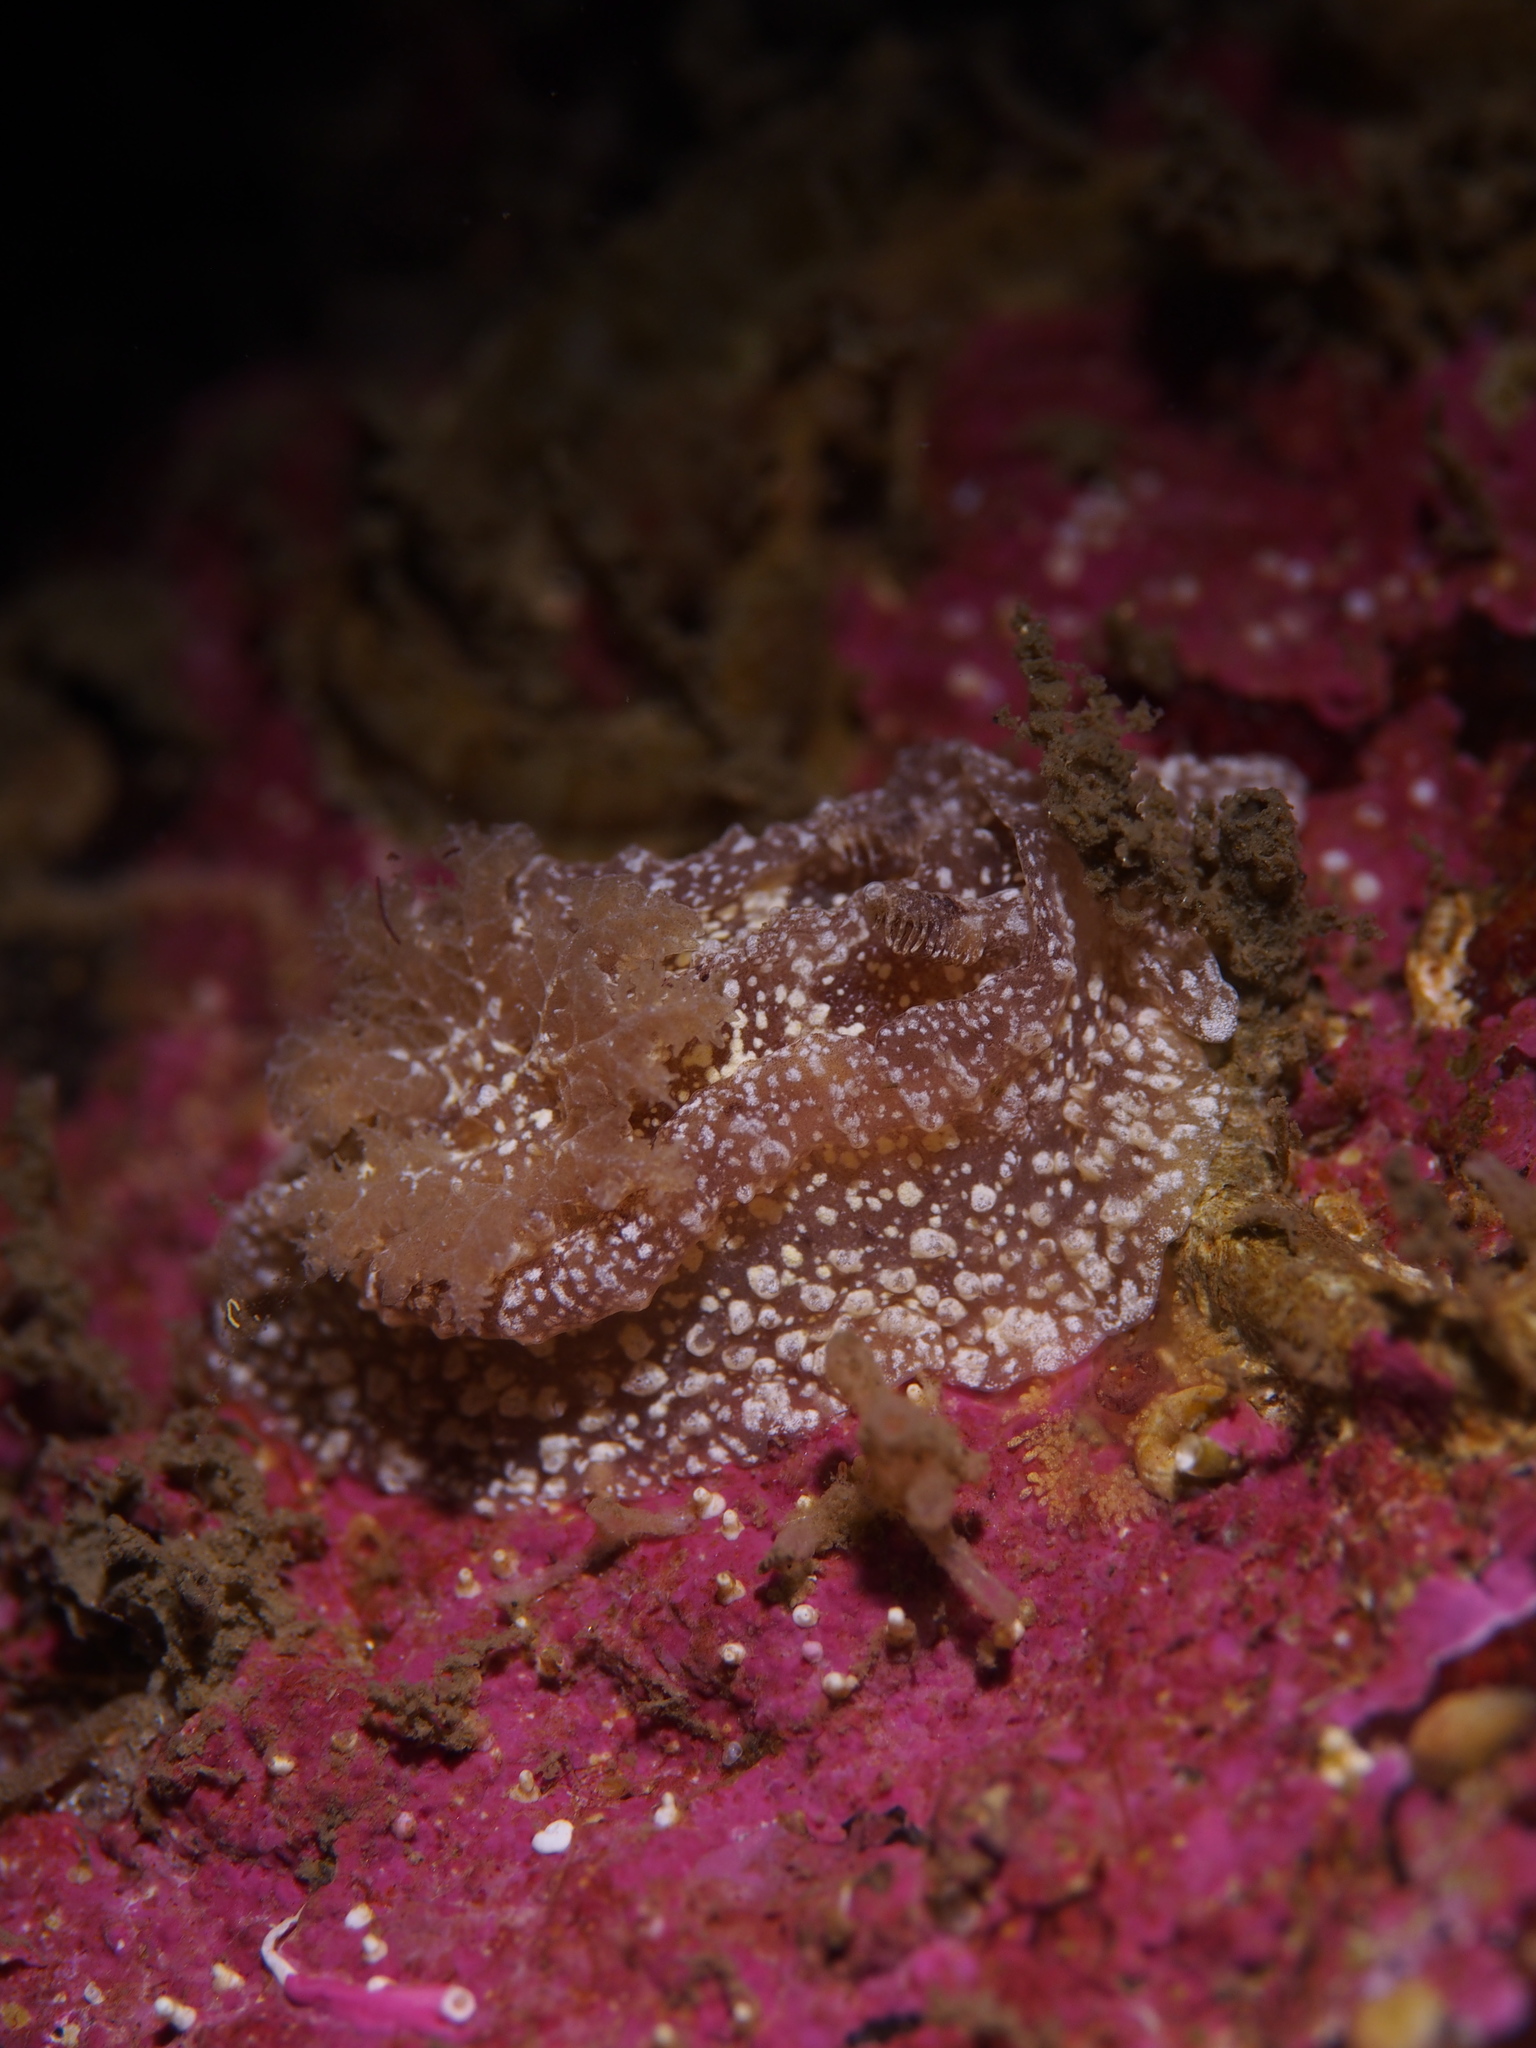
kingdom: Animalia
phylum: Mollusca
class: Gastropoda
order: Nudibranchia
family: Goniodorididae
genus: Pelagella
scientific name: Pelagella castanea
